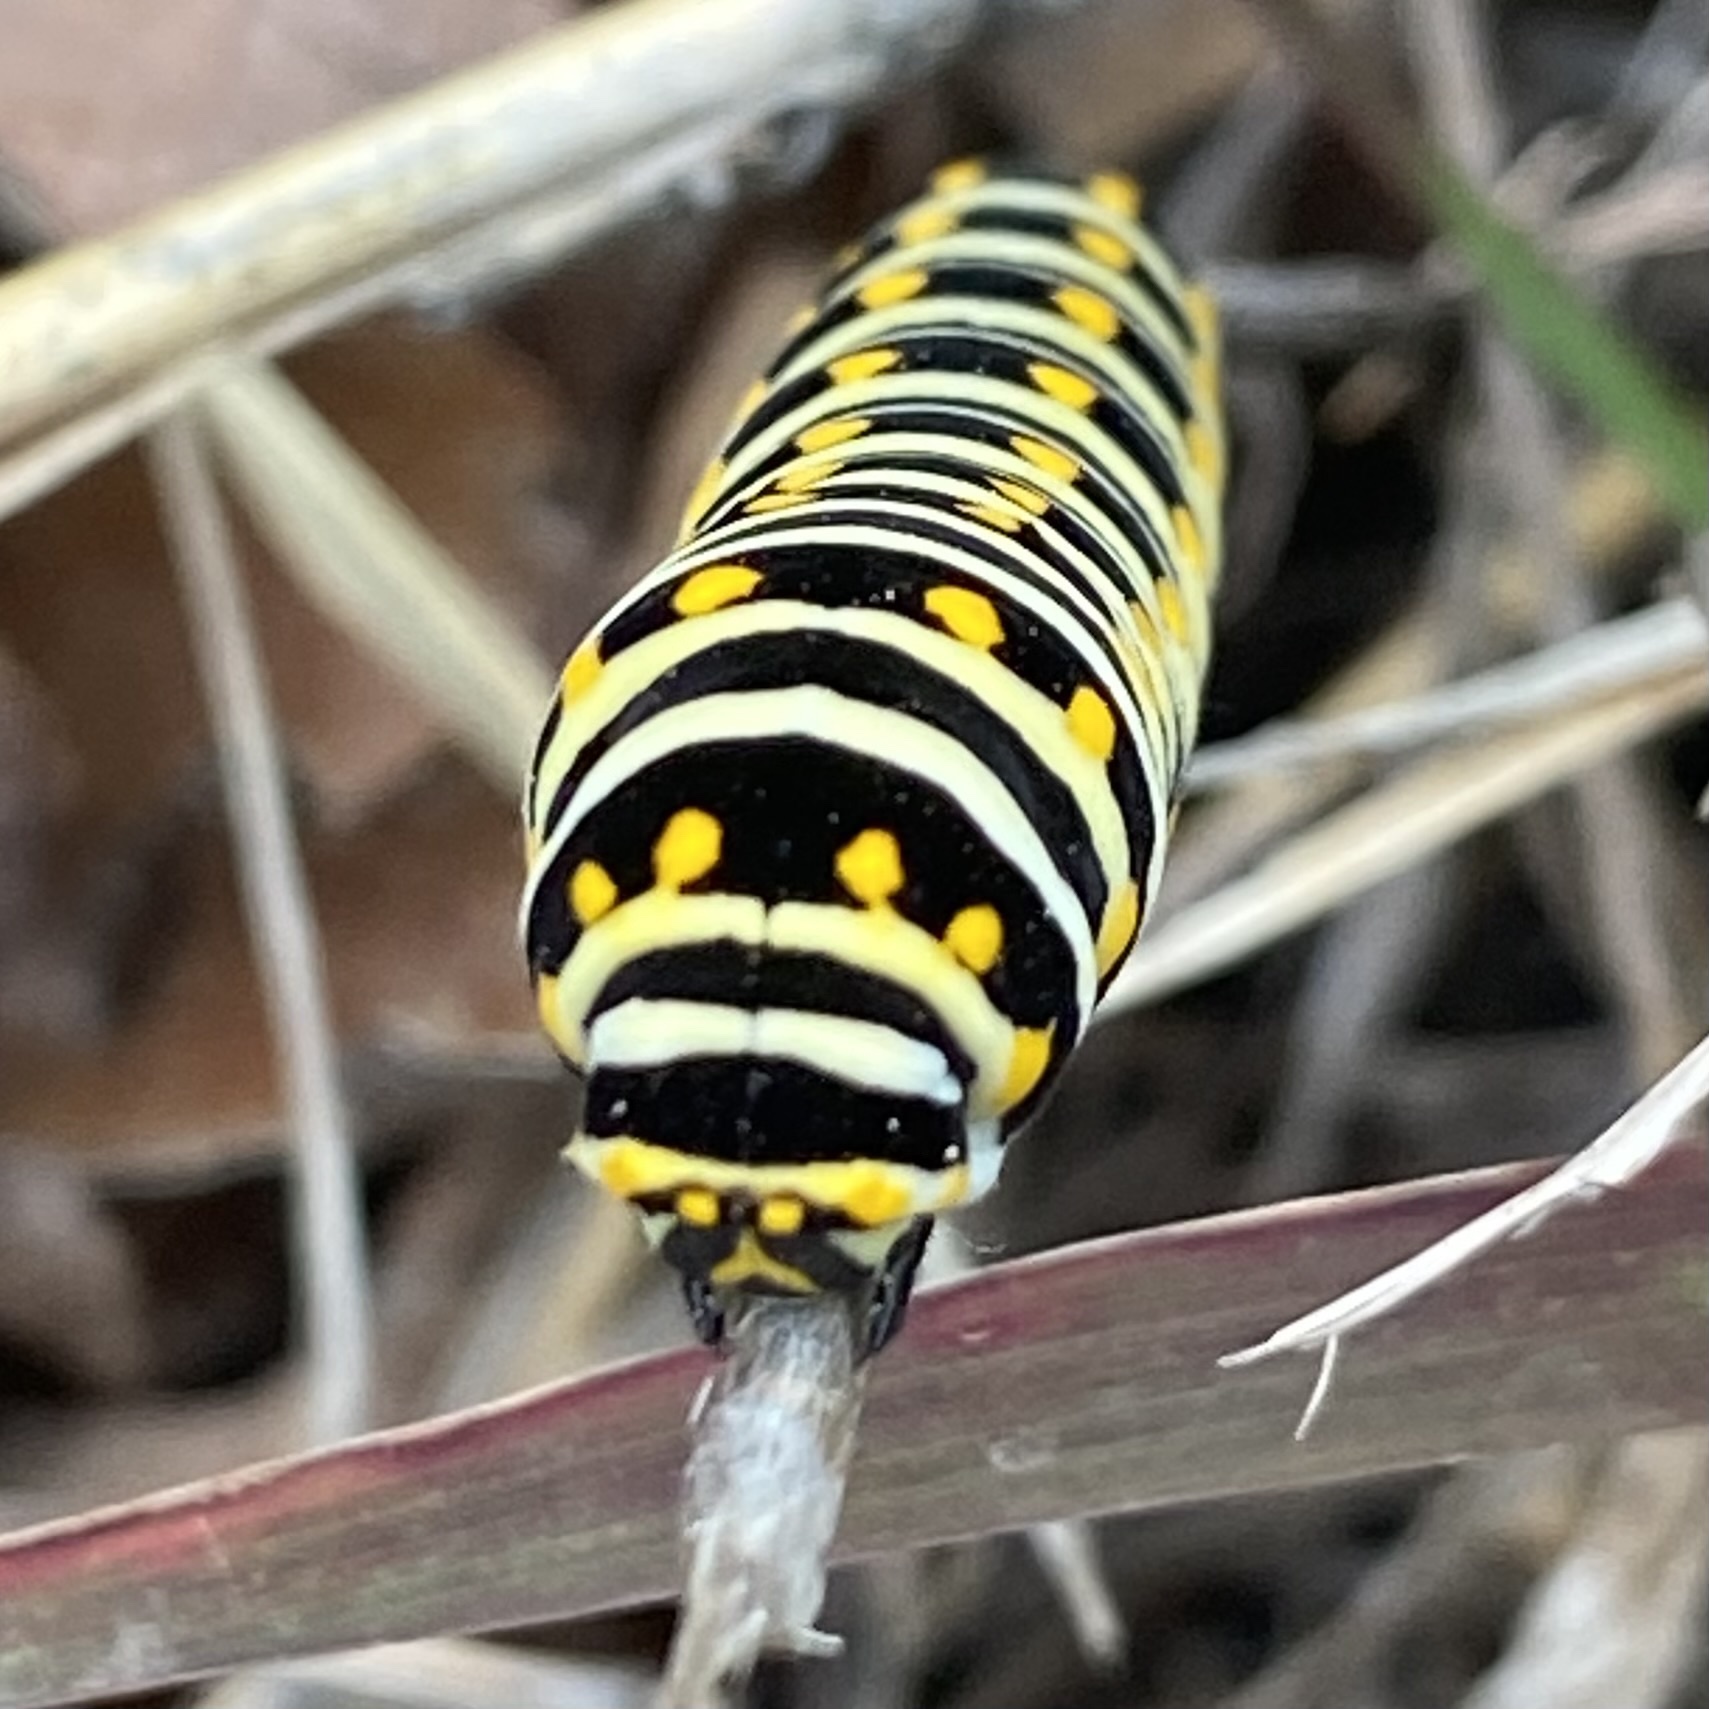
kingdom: Animalia
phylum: Arthropoda
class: Insecta
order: Lepidoptera
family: Papilionidae
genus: Papilio
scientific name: Papilio polyxenes
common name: Black swallowtail
